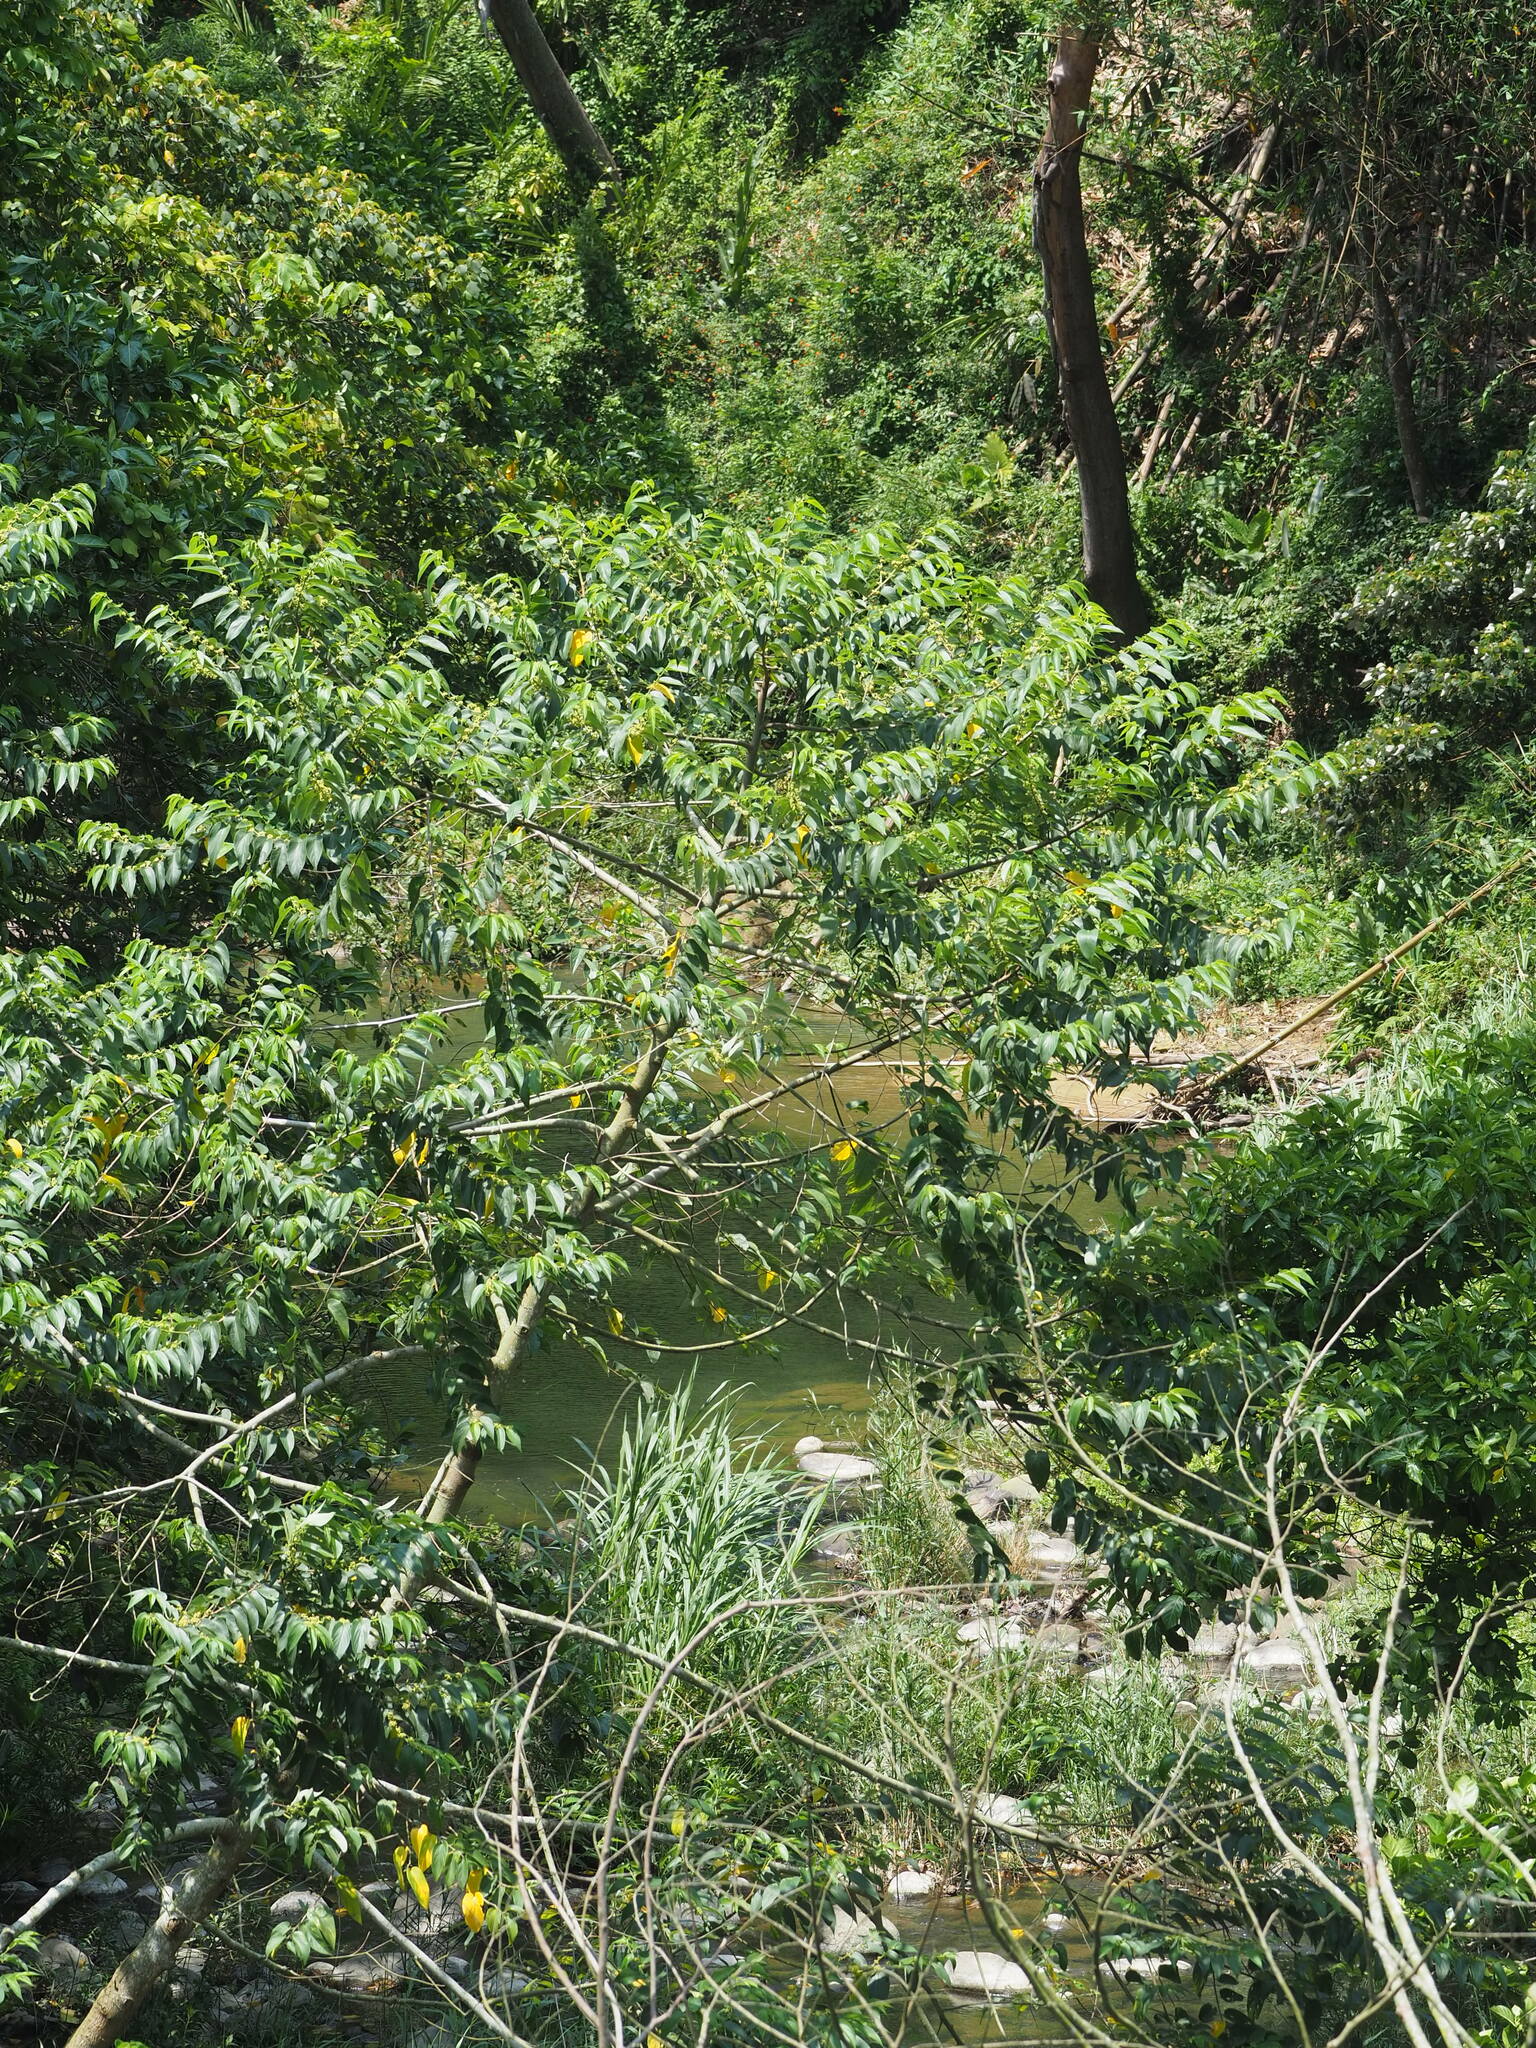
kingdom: Plantae
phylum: Tracheophyta
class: Magnoliopsida
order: Rosales
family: Cannabaceae
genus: Trema
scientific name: Trema orientale
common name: Indian charcoal tree
